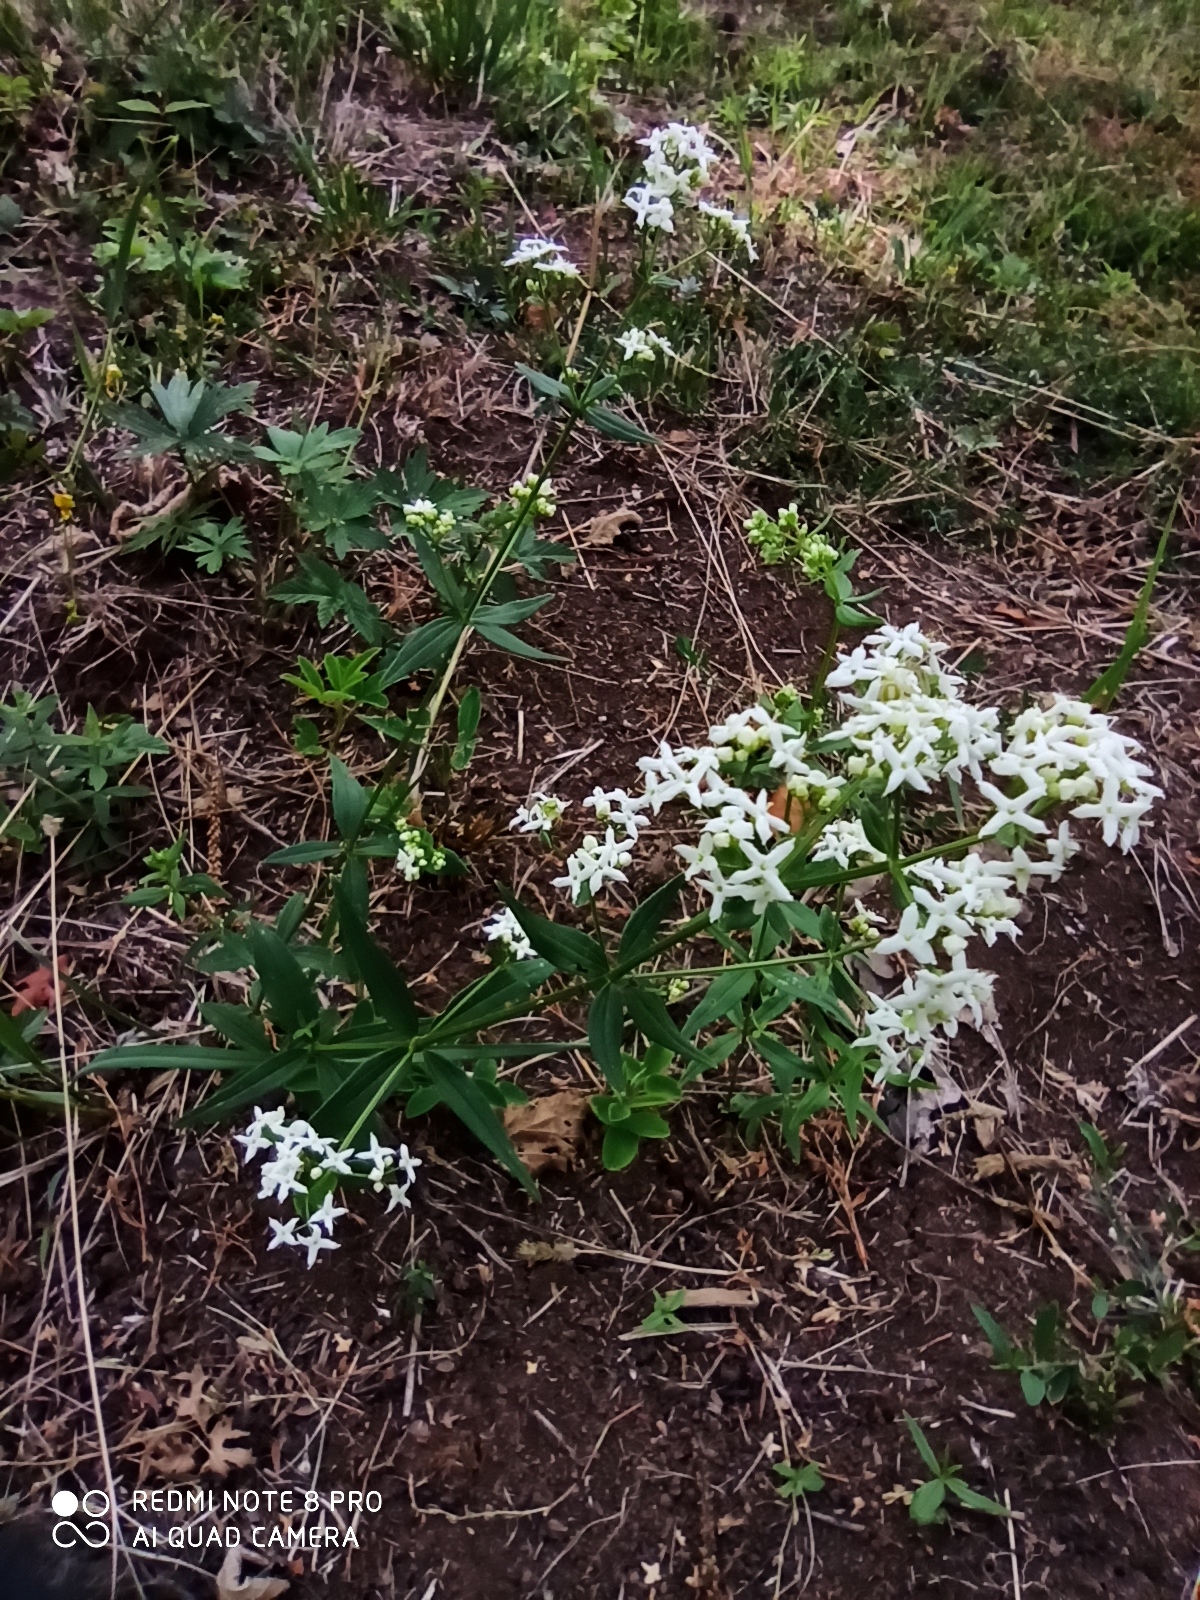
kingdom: Plantae
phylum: Tracheophyta
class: Magnoliopsida
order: Gentianales
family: Rubiaceae
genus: Galium
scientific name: Galium boreale
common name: Northern bedstraw
